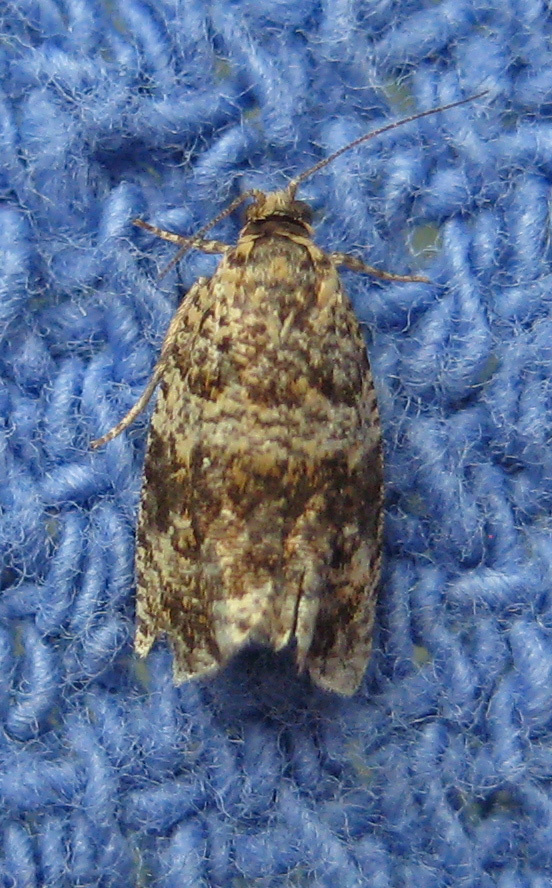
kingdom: Animalia
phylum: Arthropoda
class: Insecta
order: Lepidoptera
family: Tortricidae
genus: Celypha
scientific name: Celypha cespitana
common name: Thyme marble
